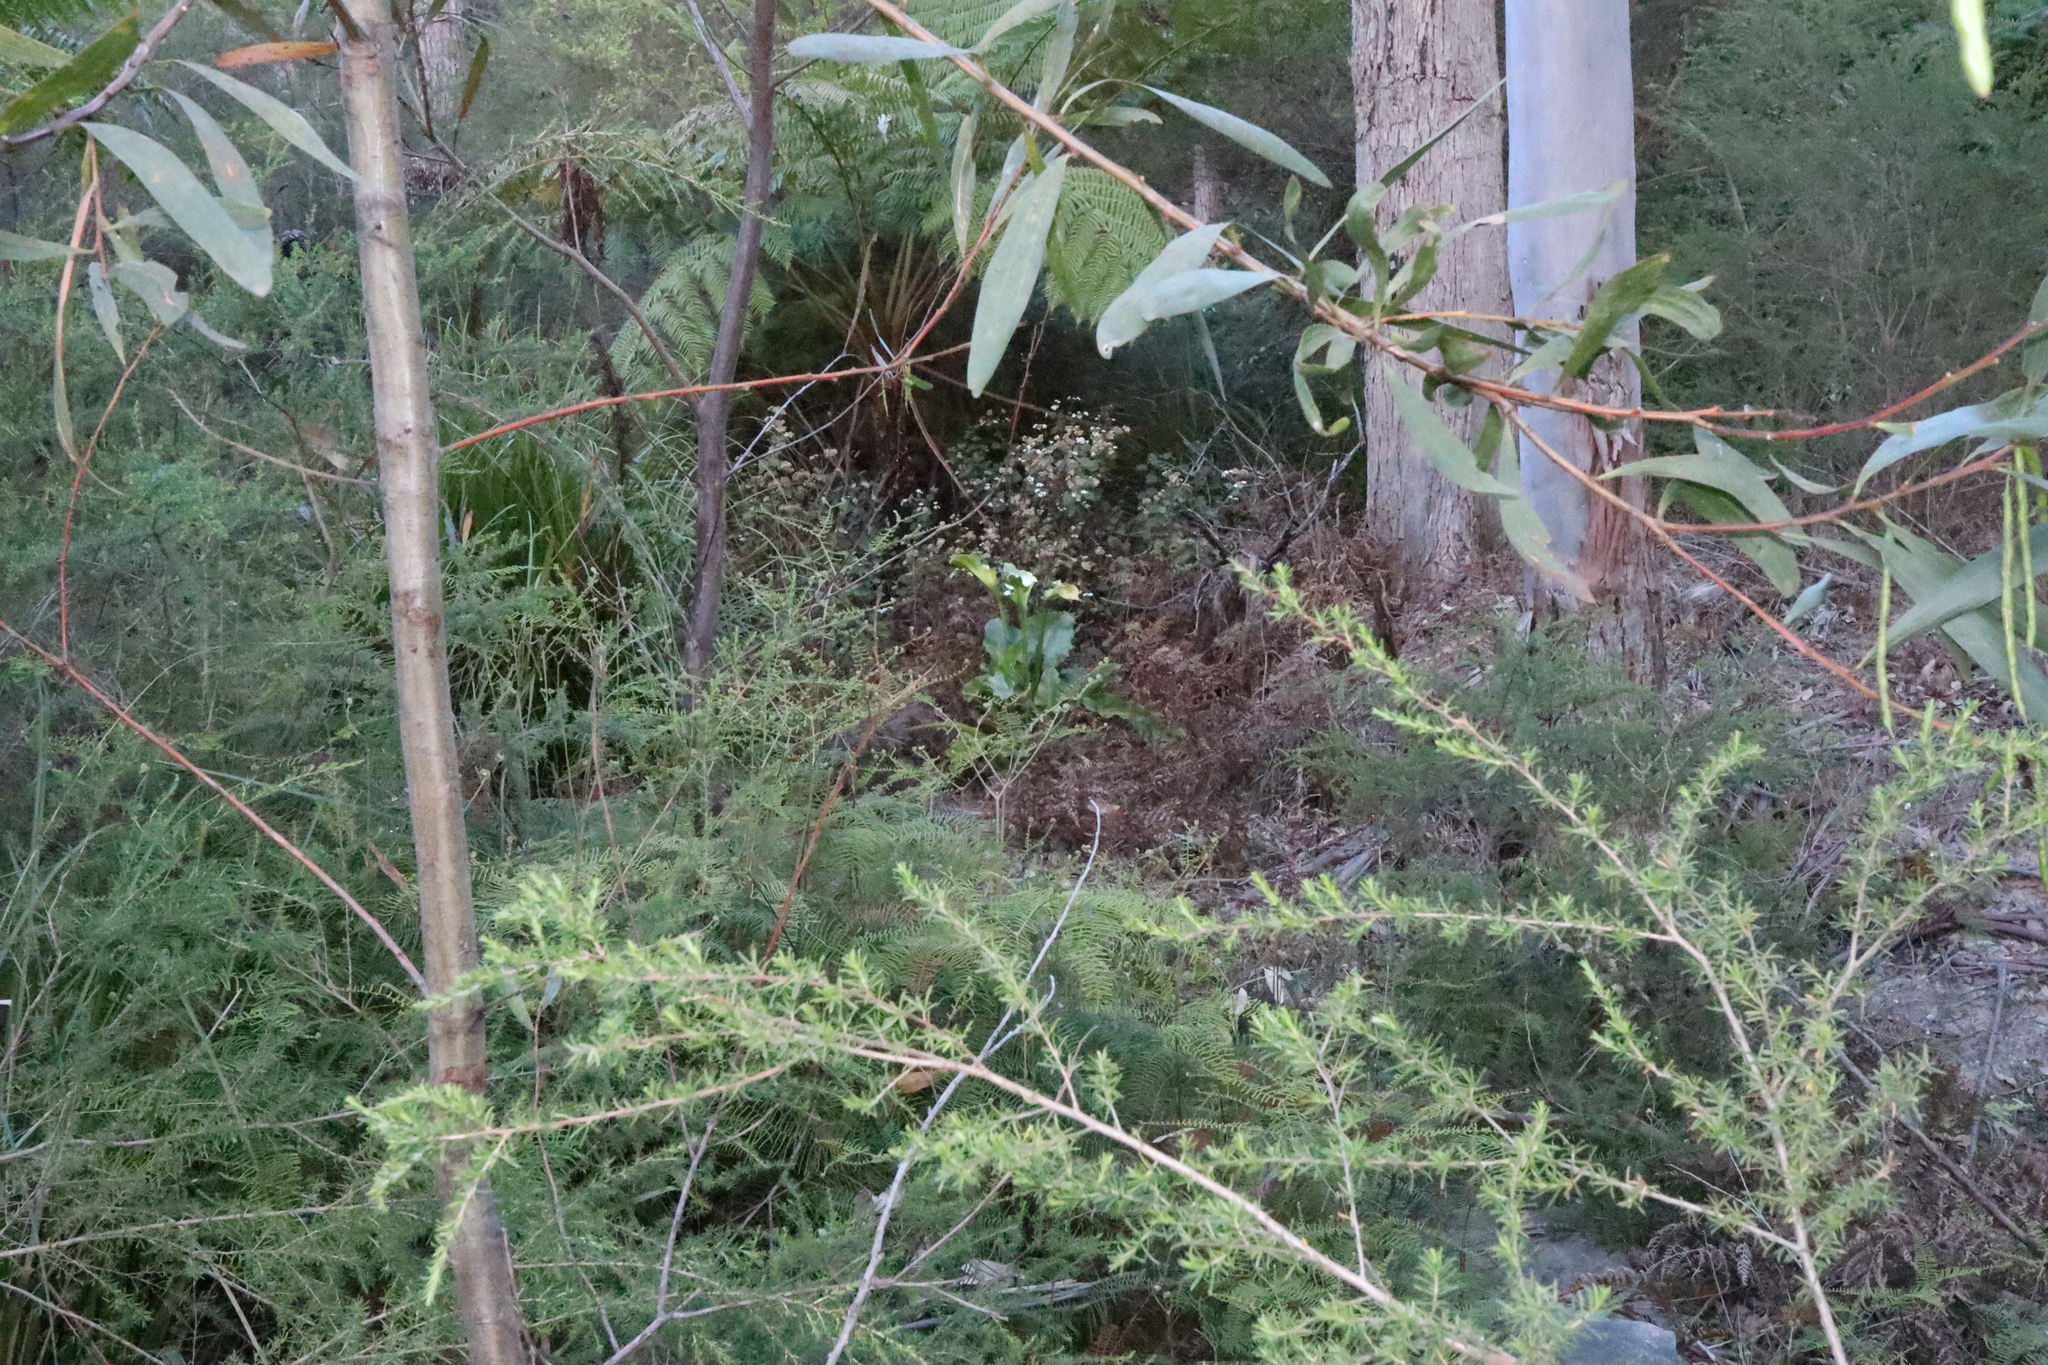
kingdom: Plantae
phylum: Tracheophyta
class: Liliopsida
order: Alismatales
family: Araceae
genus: Zantedeschia
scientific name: Zantedeschia aethiopica
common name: Altar-lily
